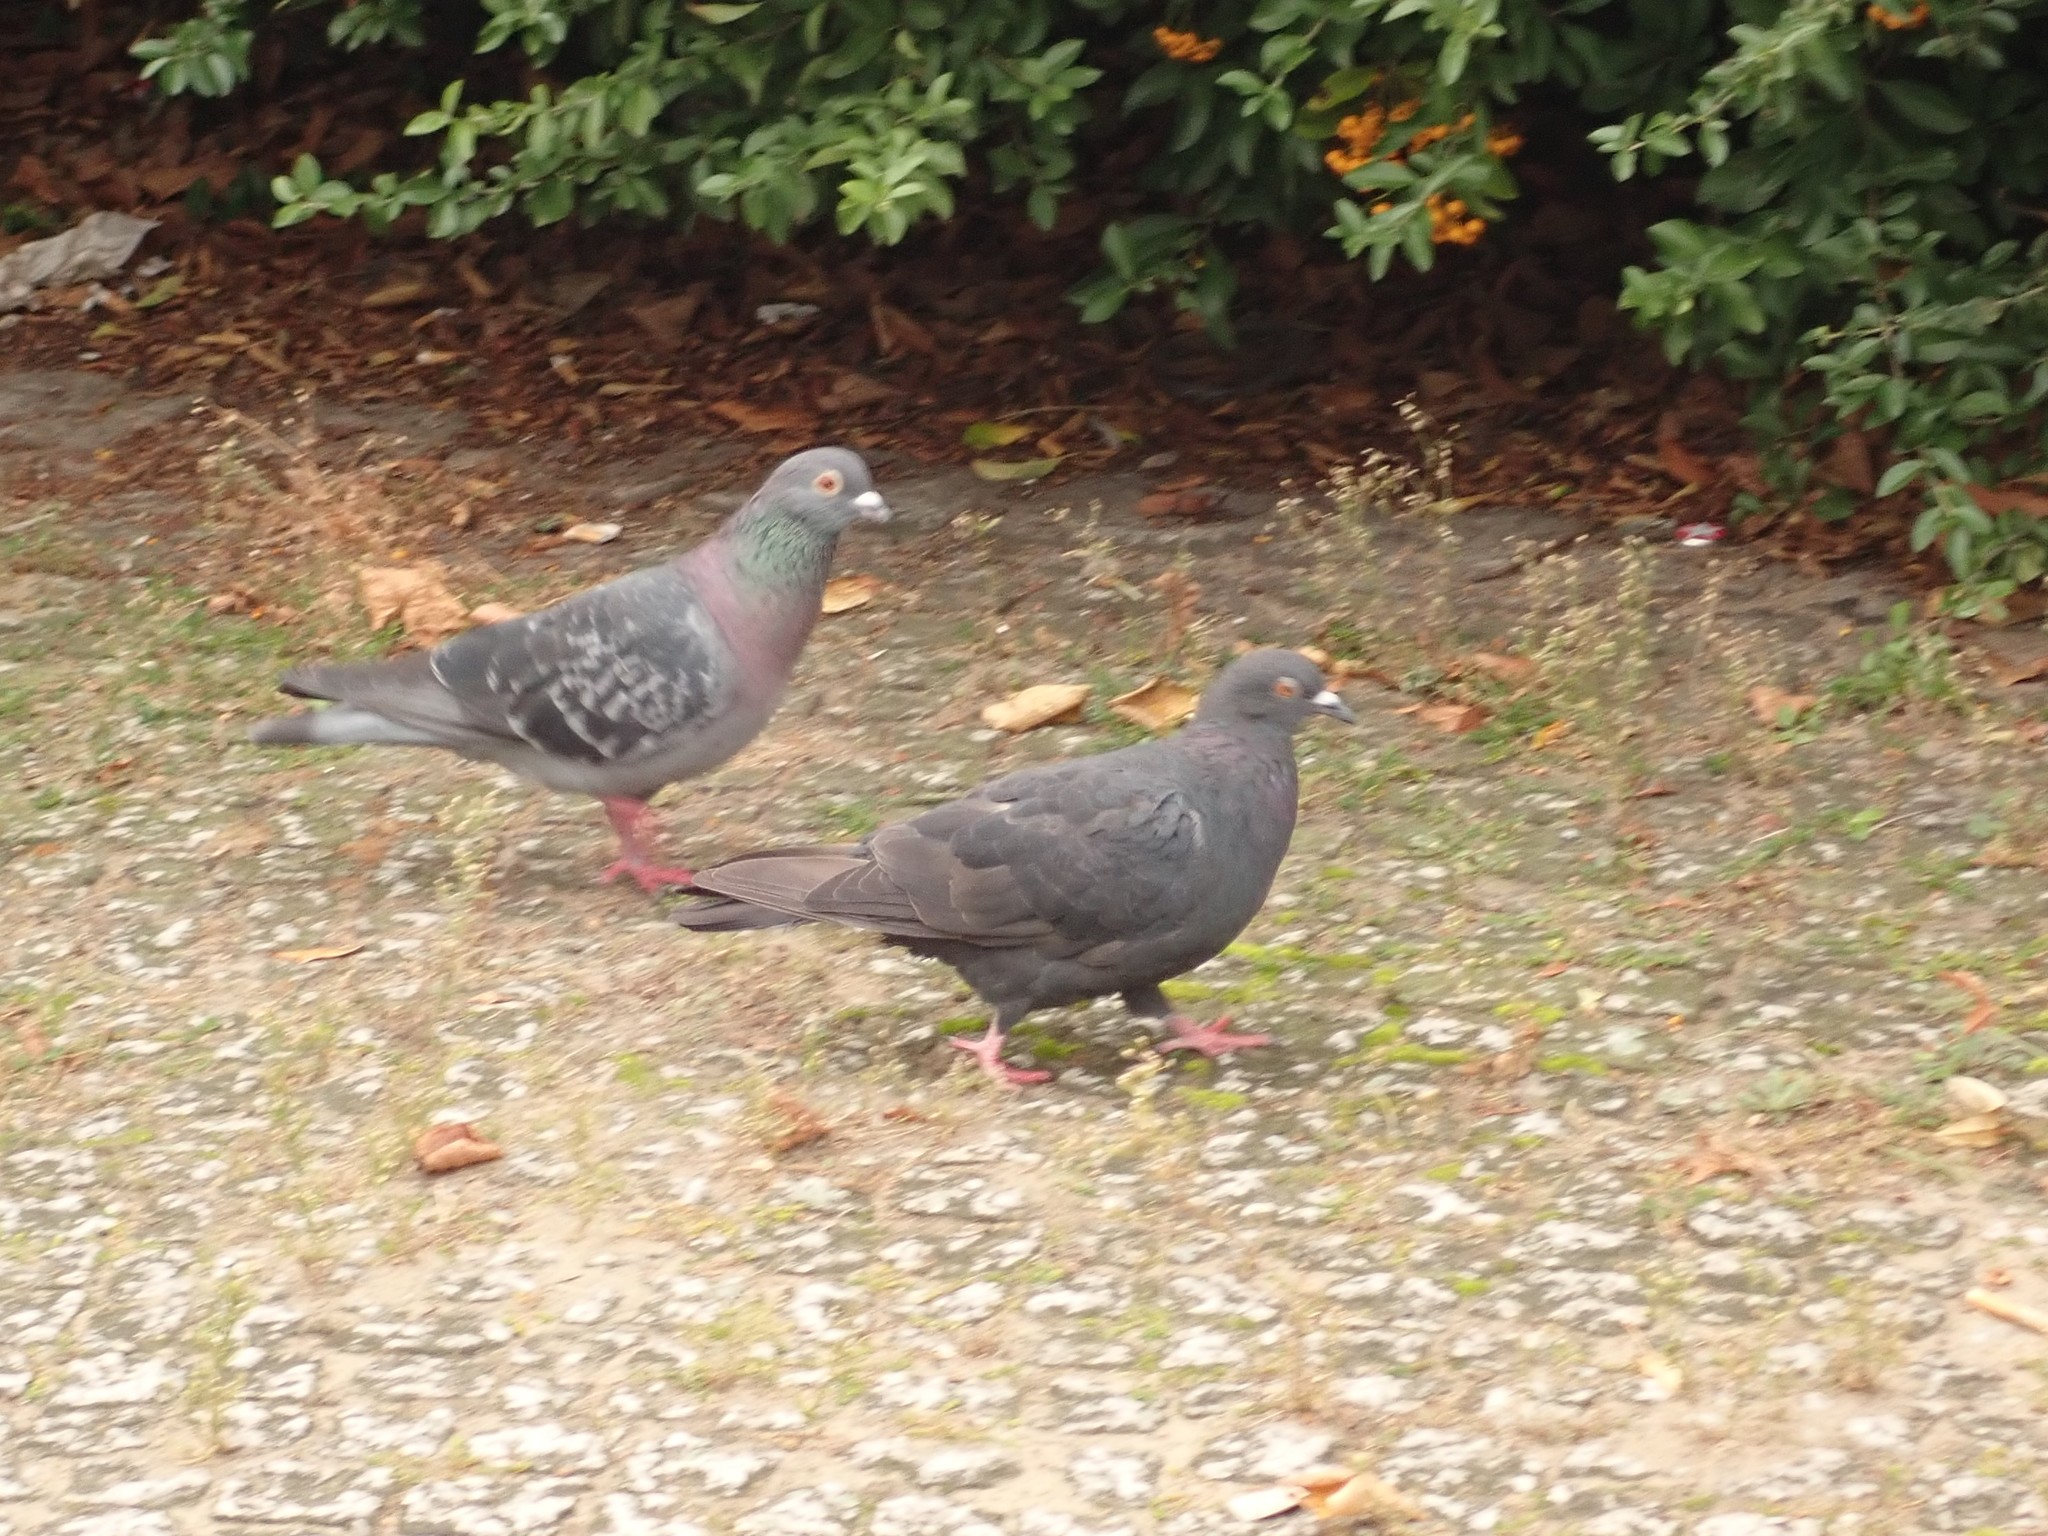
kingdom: Animalia
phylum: Chordata
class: Aves
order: Columbiformes
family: Columbidae
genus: Columba
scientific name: Columba livia
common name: Rock pigeon
